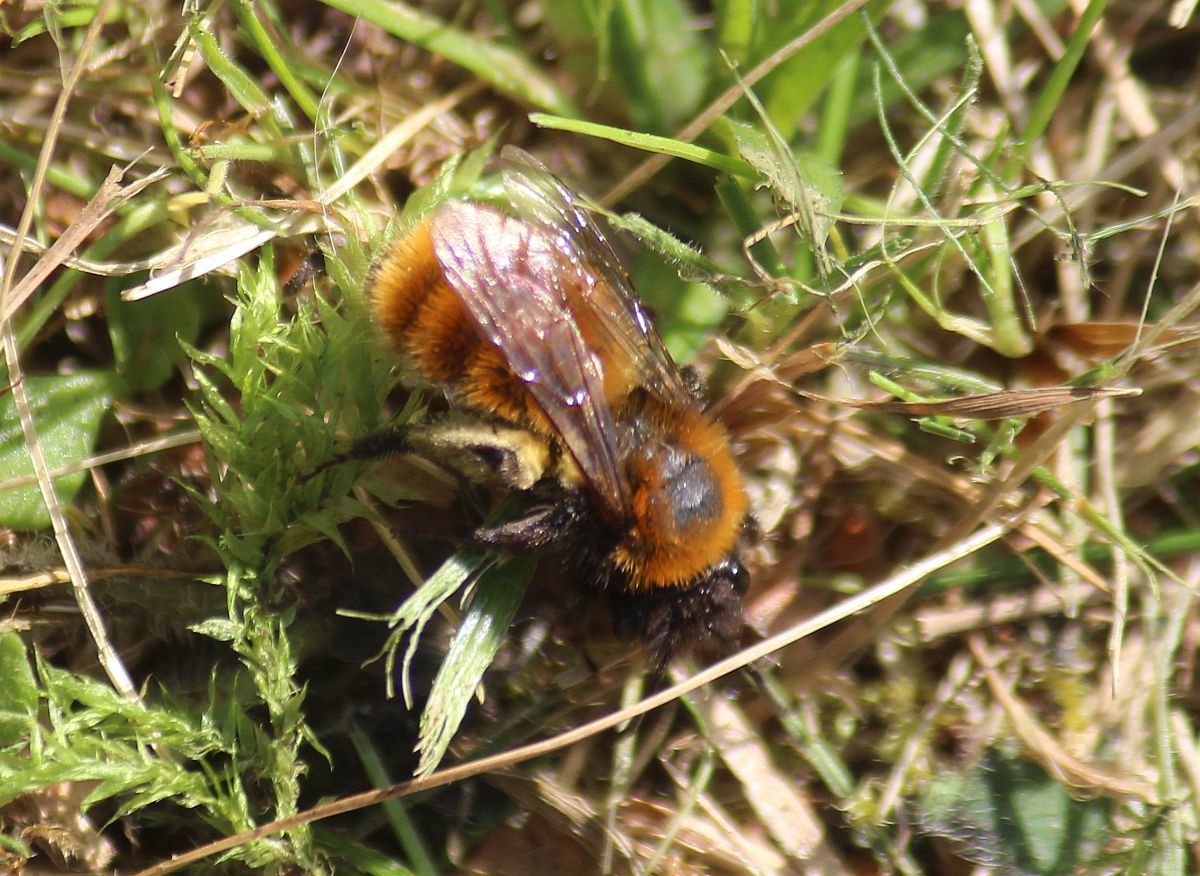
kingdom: Animalia
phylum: Arthropoda
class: Insecta
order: Hymenoptera
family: Andrenidae
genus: Andrena
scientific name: Andrena fulva
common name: Tawny mining bee
